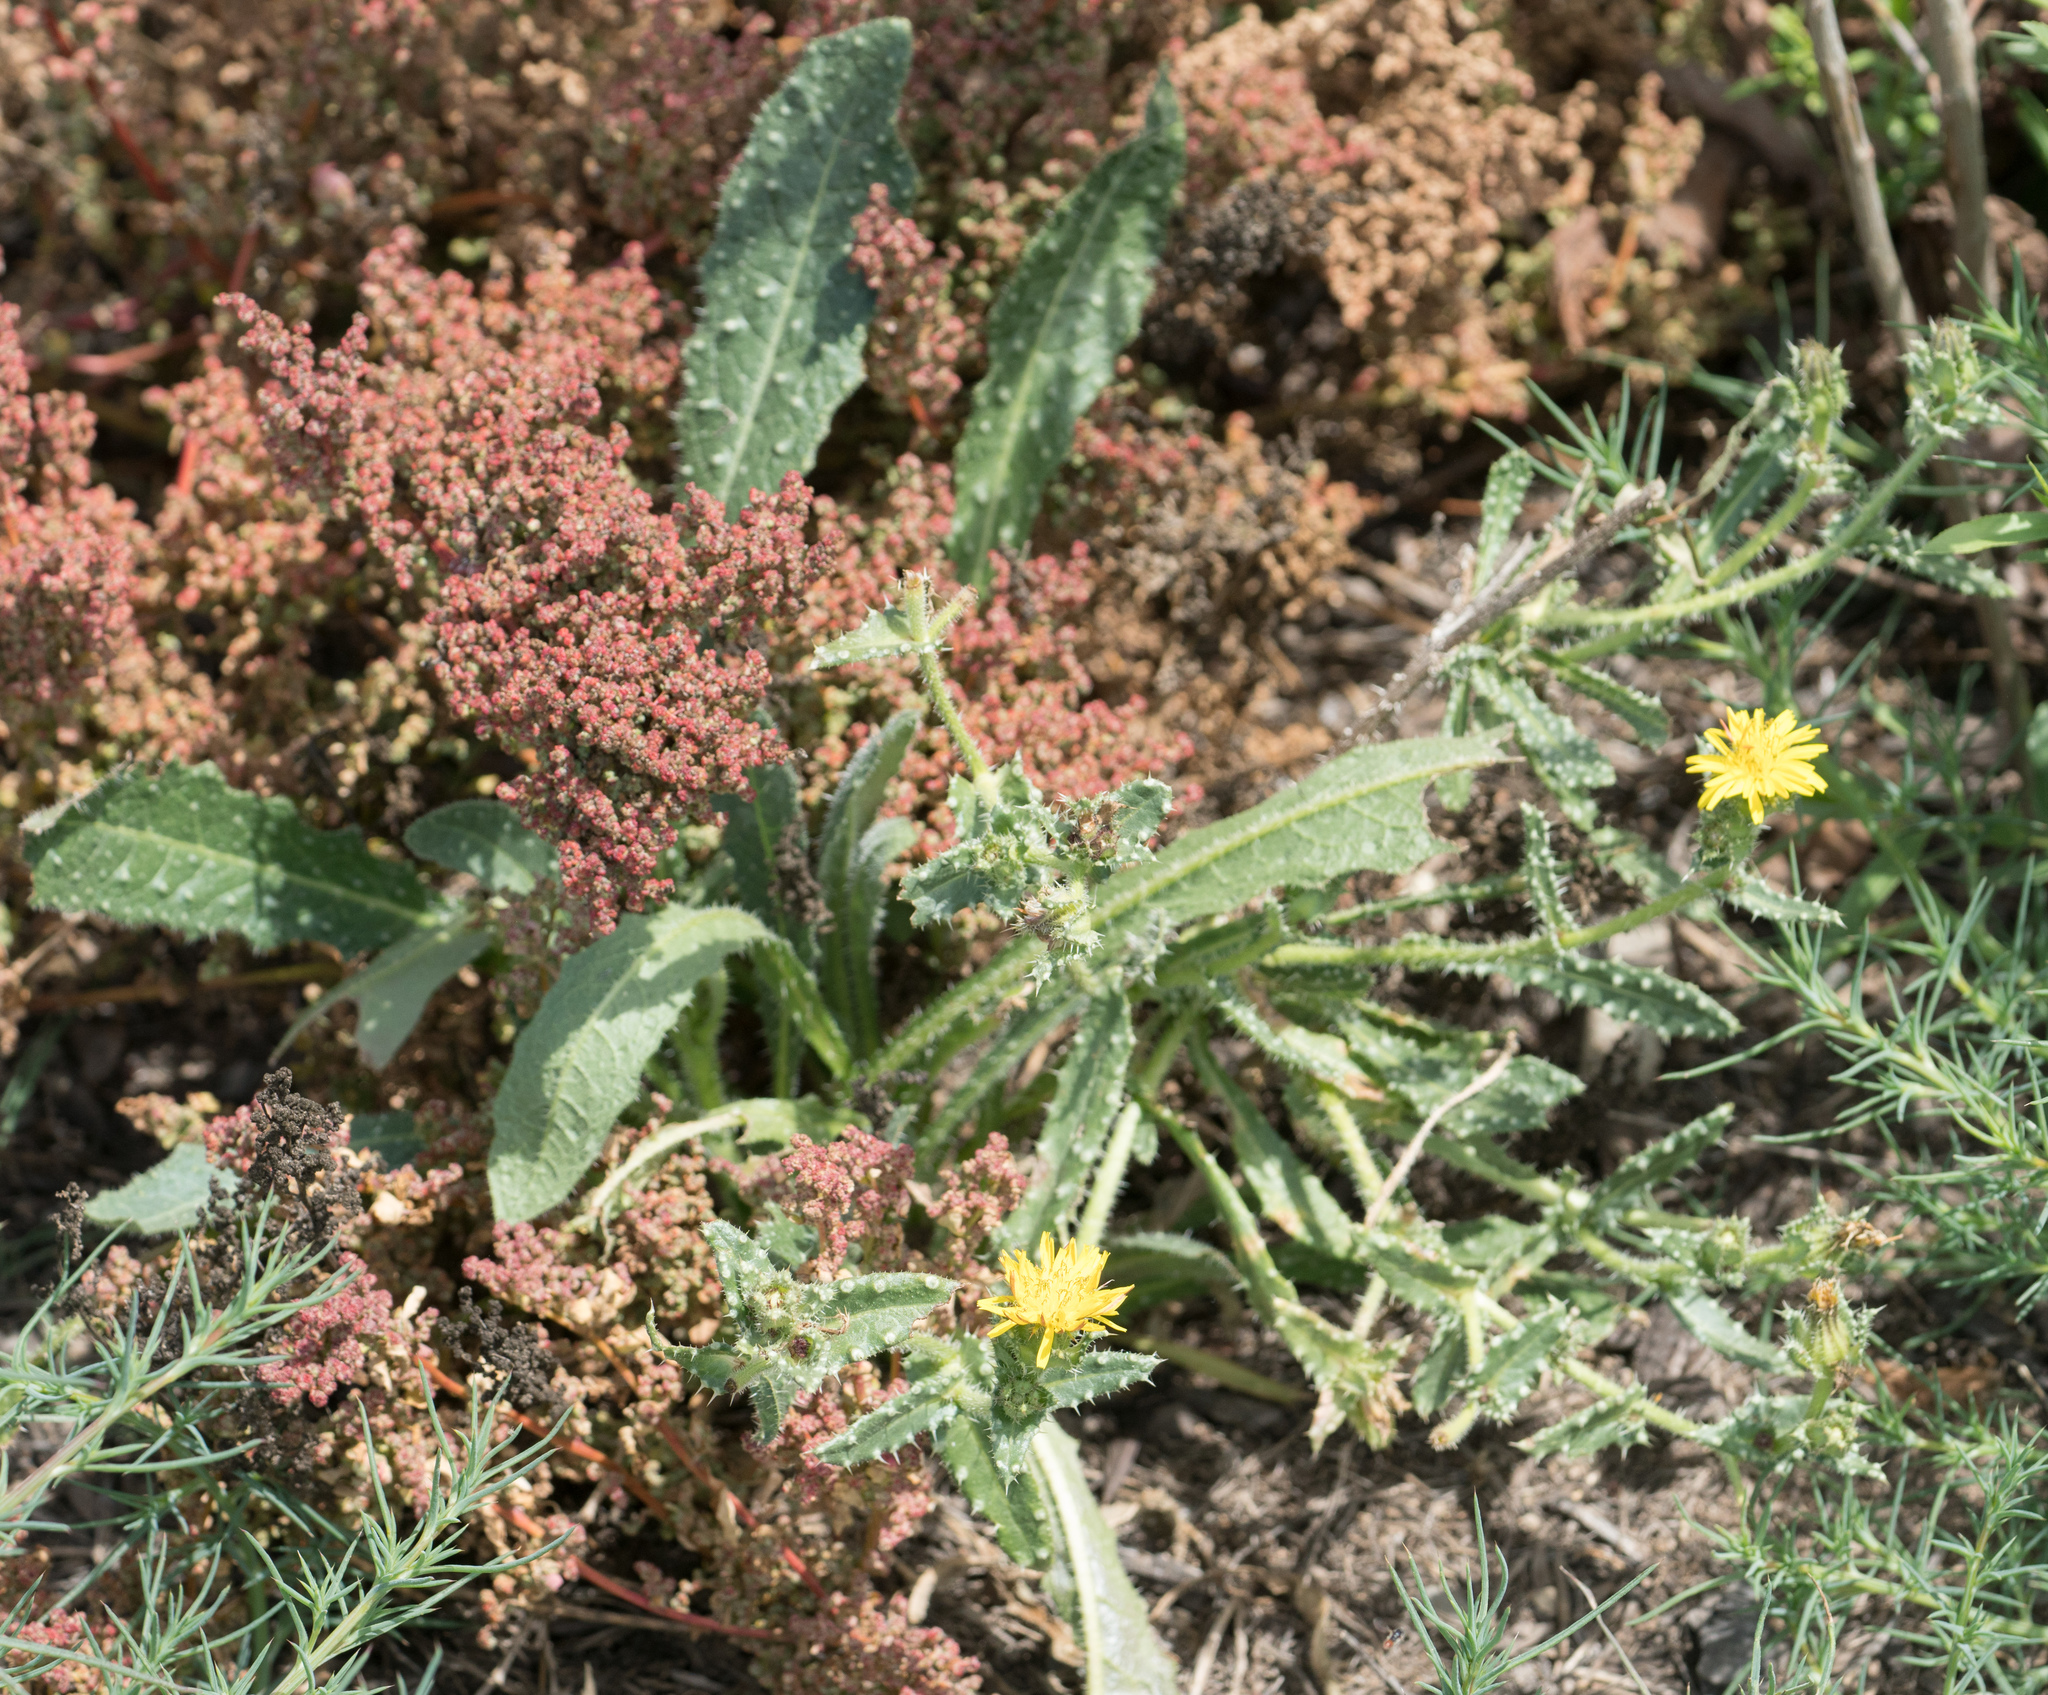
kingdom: Plantae
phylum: Tracheophyta
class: Magnoliopsida
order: Asterales
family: Asteraceae
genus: Helminthotheca
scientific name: Helminthotheca echioides
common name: Ox-tongue
